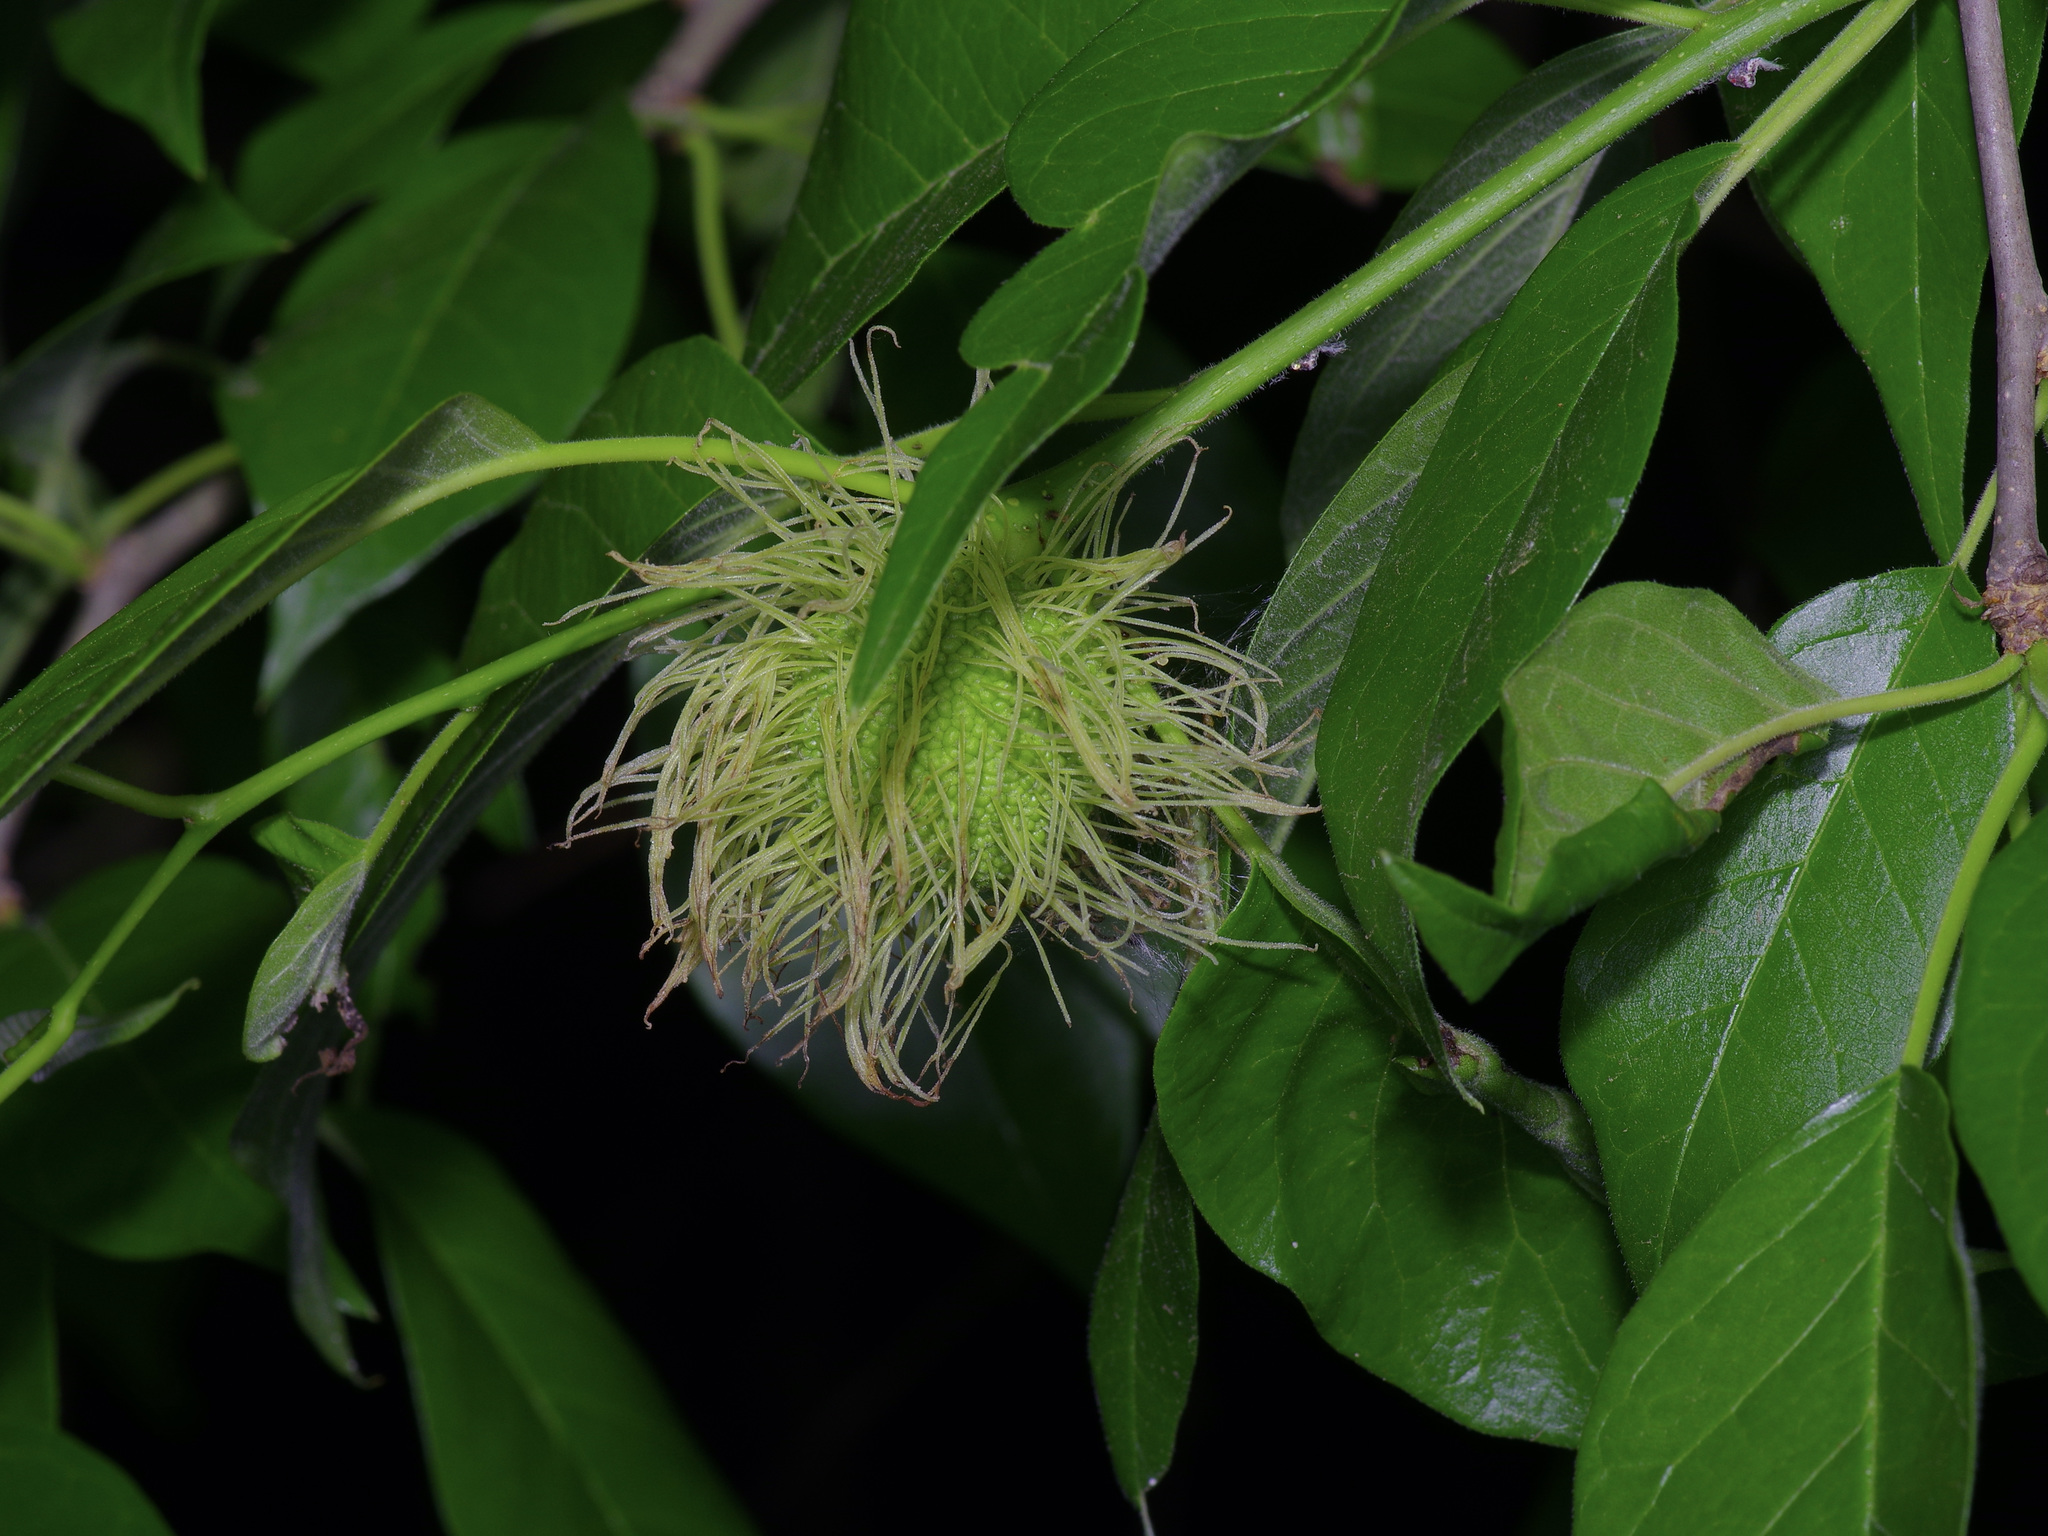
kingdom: Plantae
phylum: Tracheophyta
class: Magnoliopsida
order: Rosales
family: Moraceae
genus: Maclura
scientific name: Maclura pomifera
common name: Osage-orange
